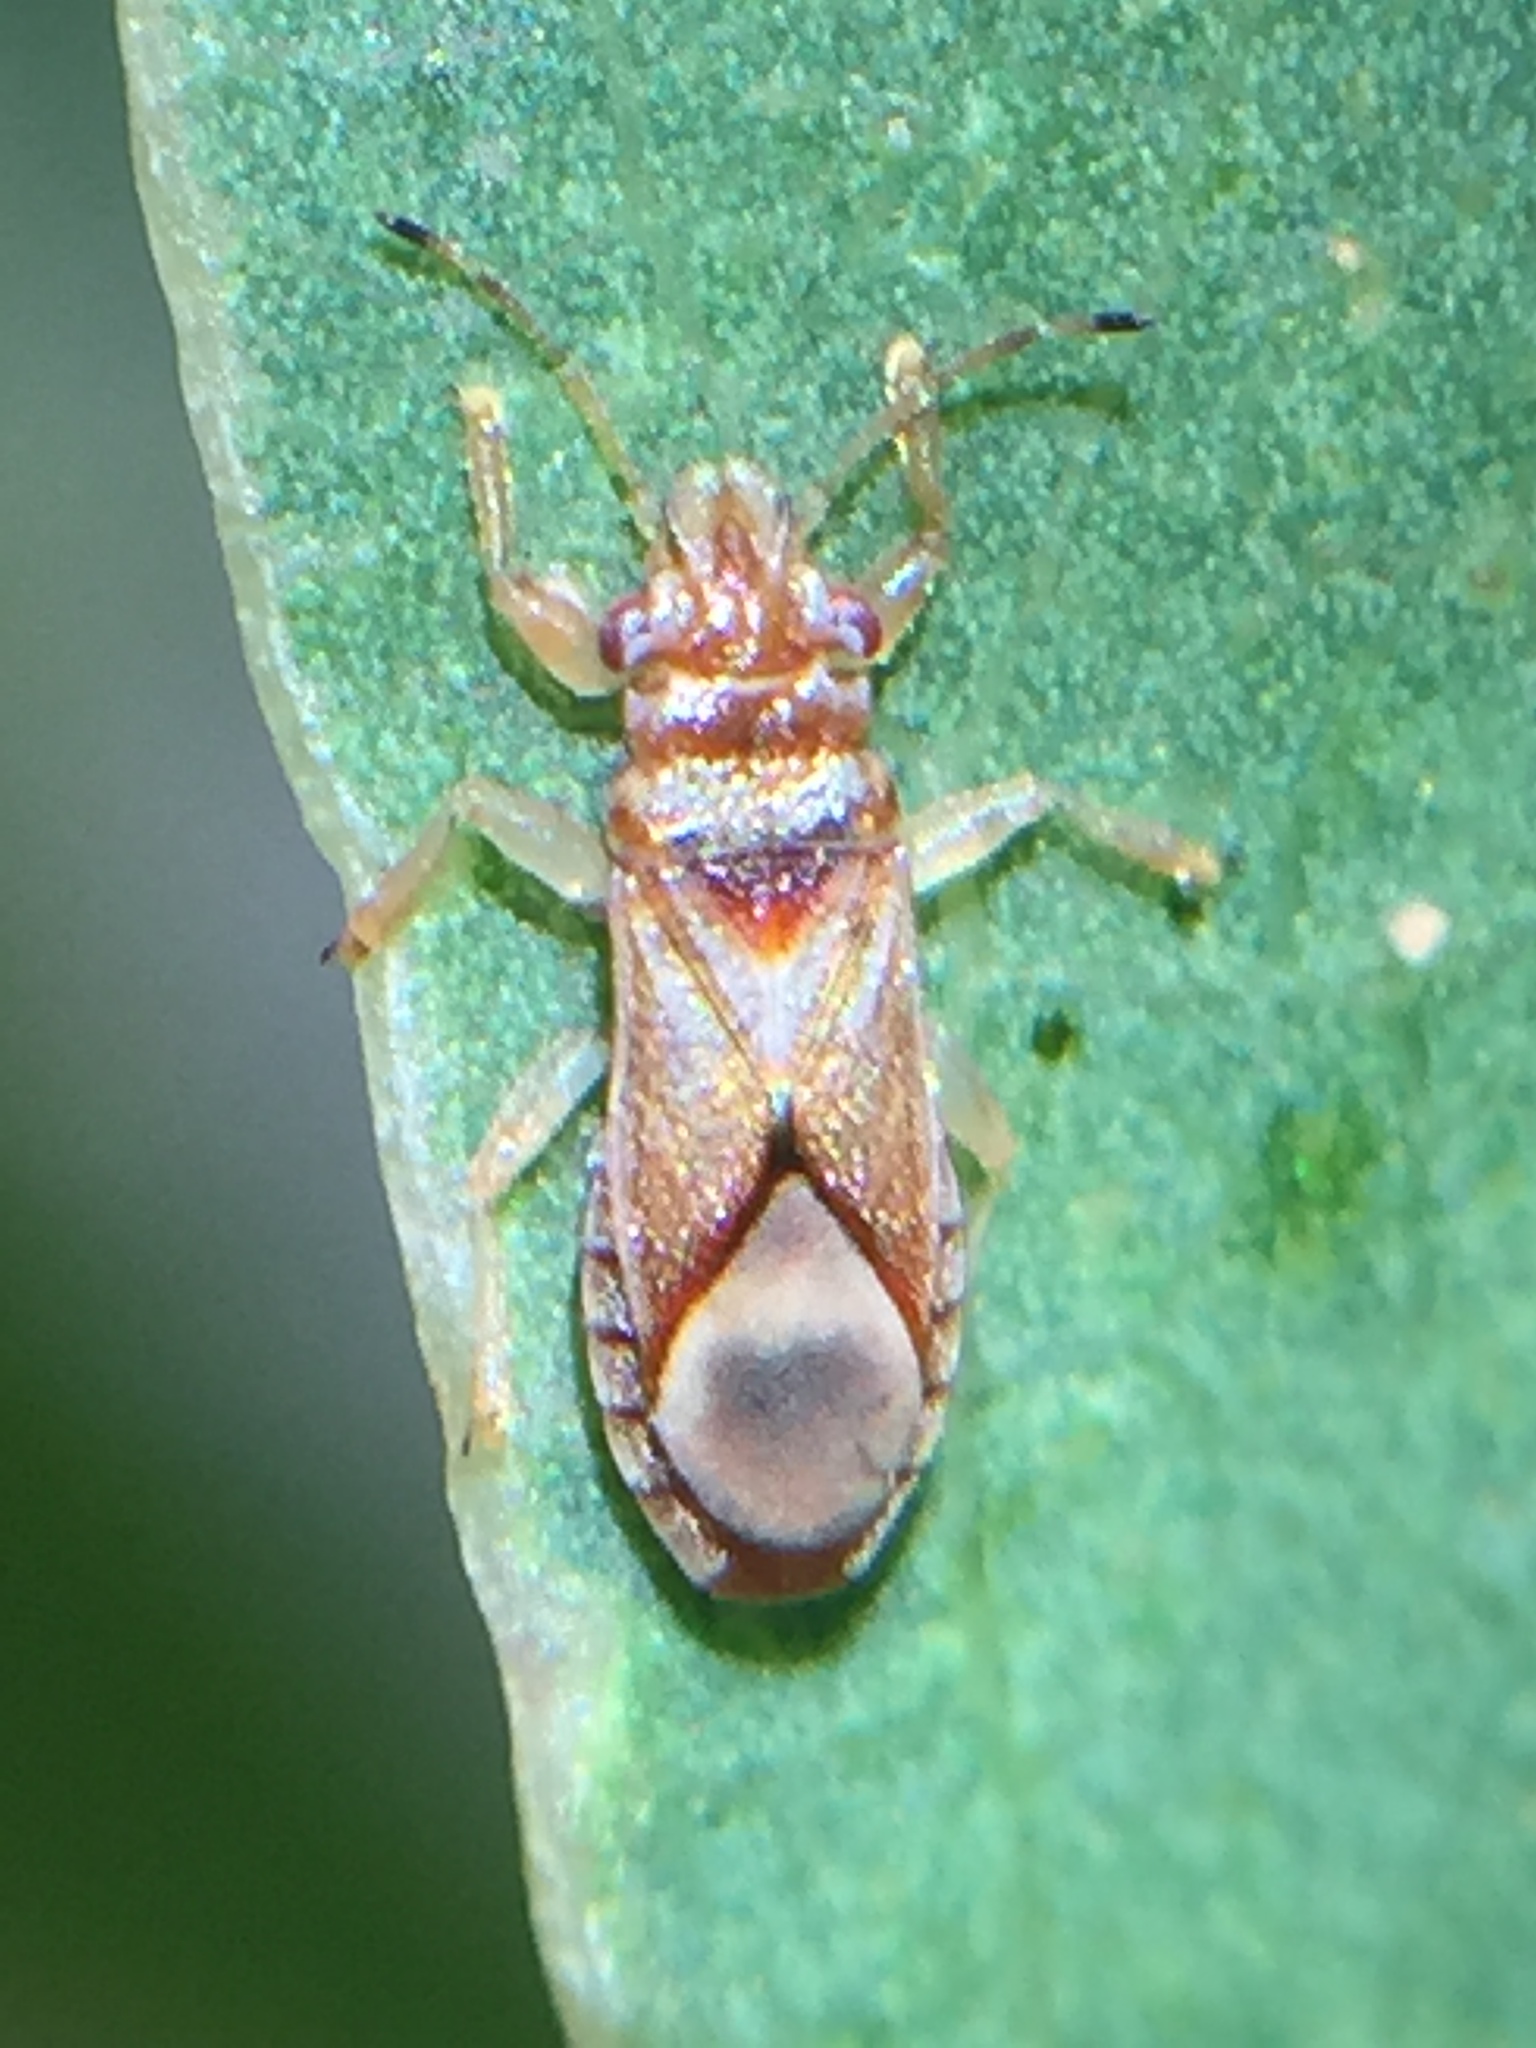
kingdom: Animalia
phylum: Arthropoda
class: Insecta
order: Hemiptera
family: Thaumastocoridae
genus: Thaumastocoris
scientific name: Thaumastocoris peregrinus
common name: Bronze bug
